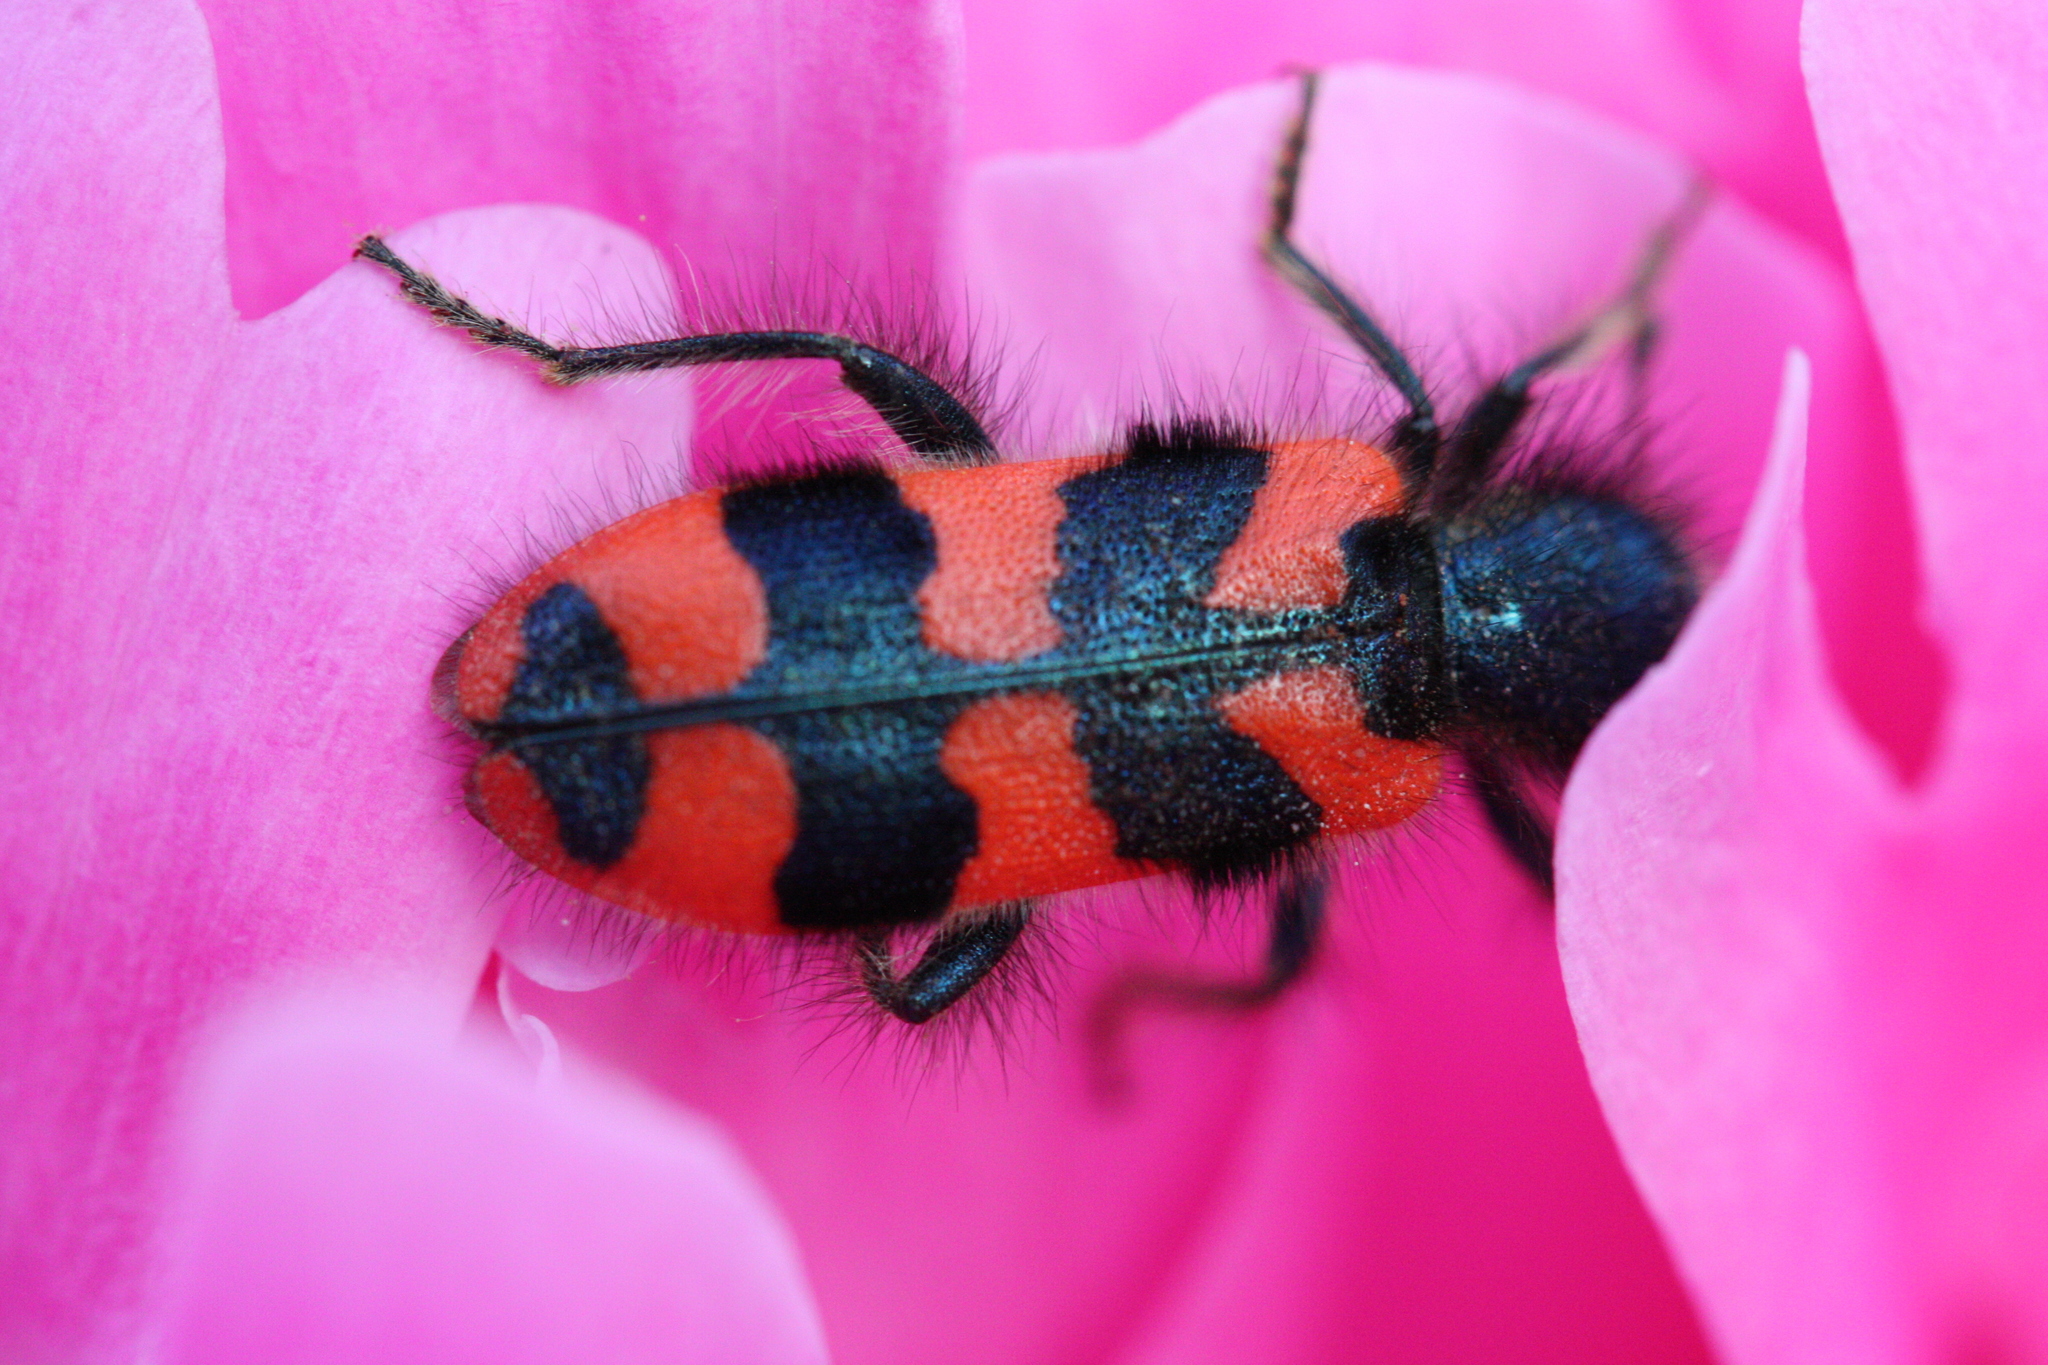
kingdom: Animalia
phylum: Arthropoda
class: Insecta
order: Coleoptera
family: Cleridae
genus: Trichodes
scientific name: Trichodes alvearius
